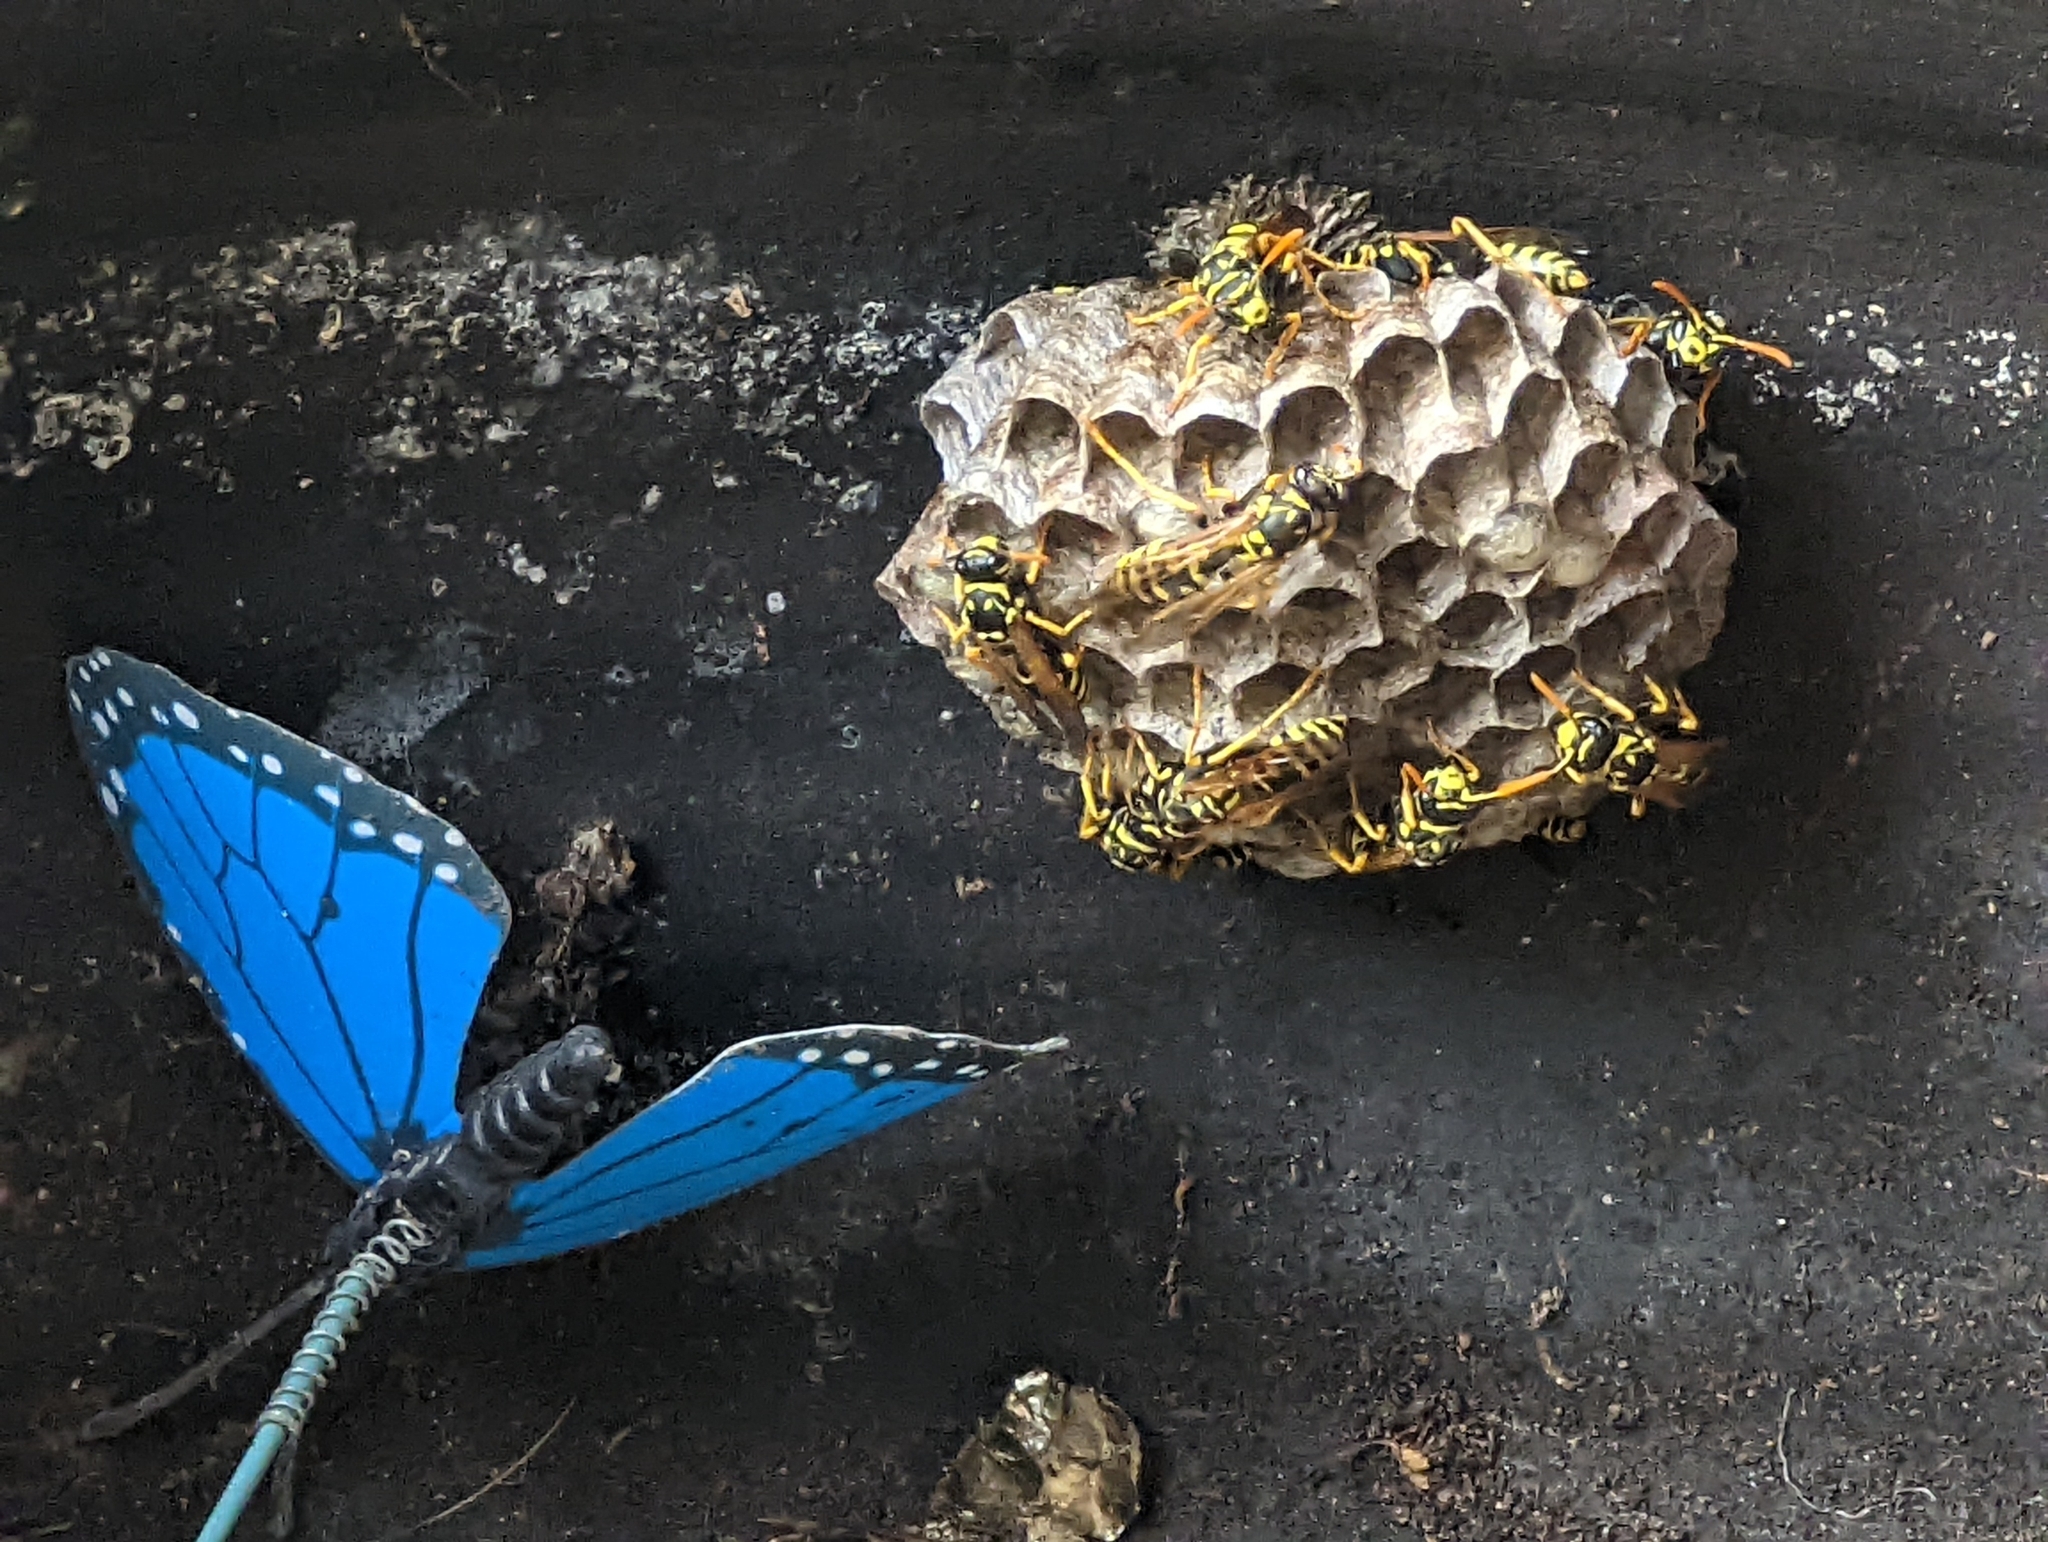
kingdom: Animalia
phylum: Arthropoda
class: Insecta
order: Hymenoptera
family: Eumenidae
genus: Polistes
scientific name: Polistes dominula
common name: Paper wasp
